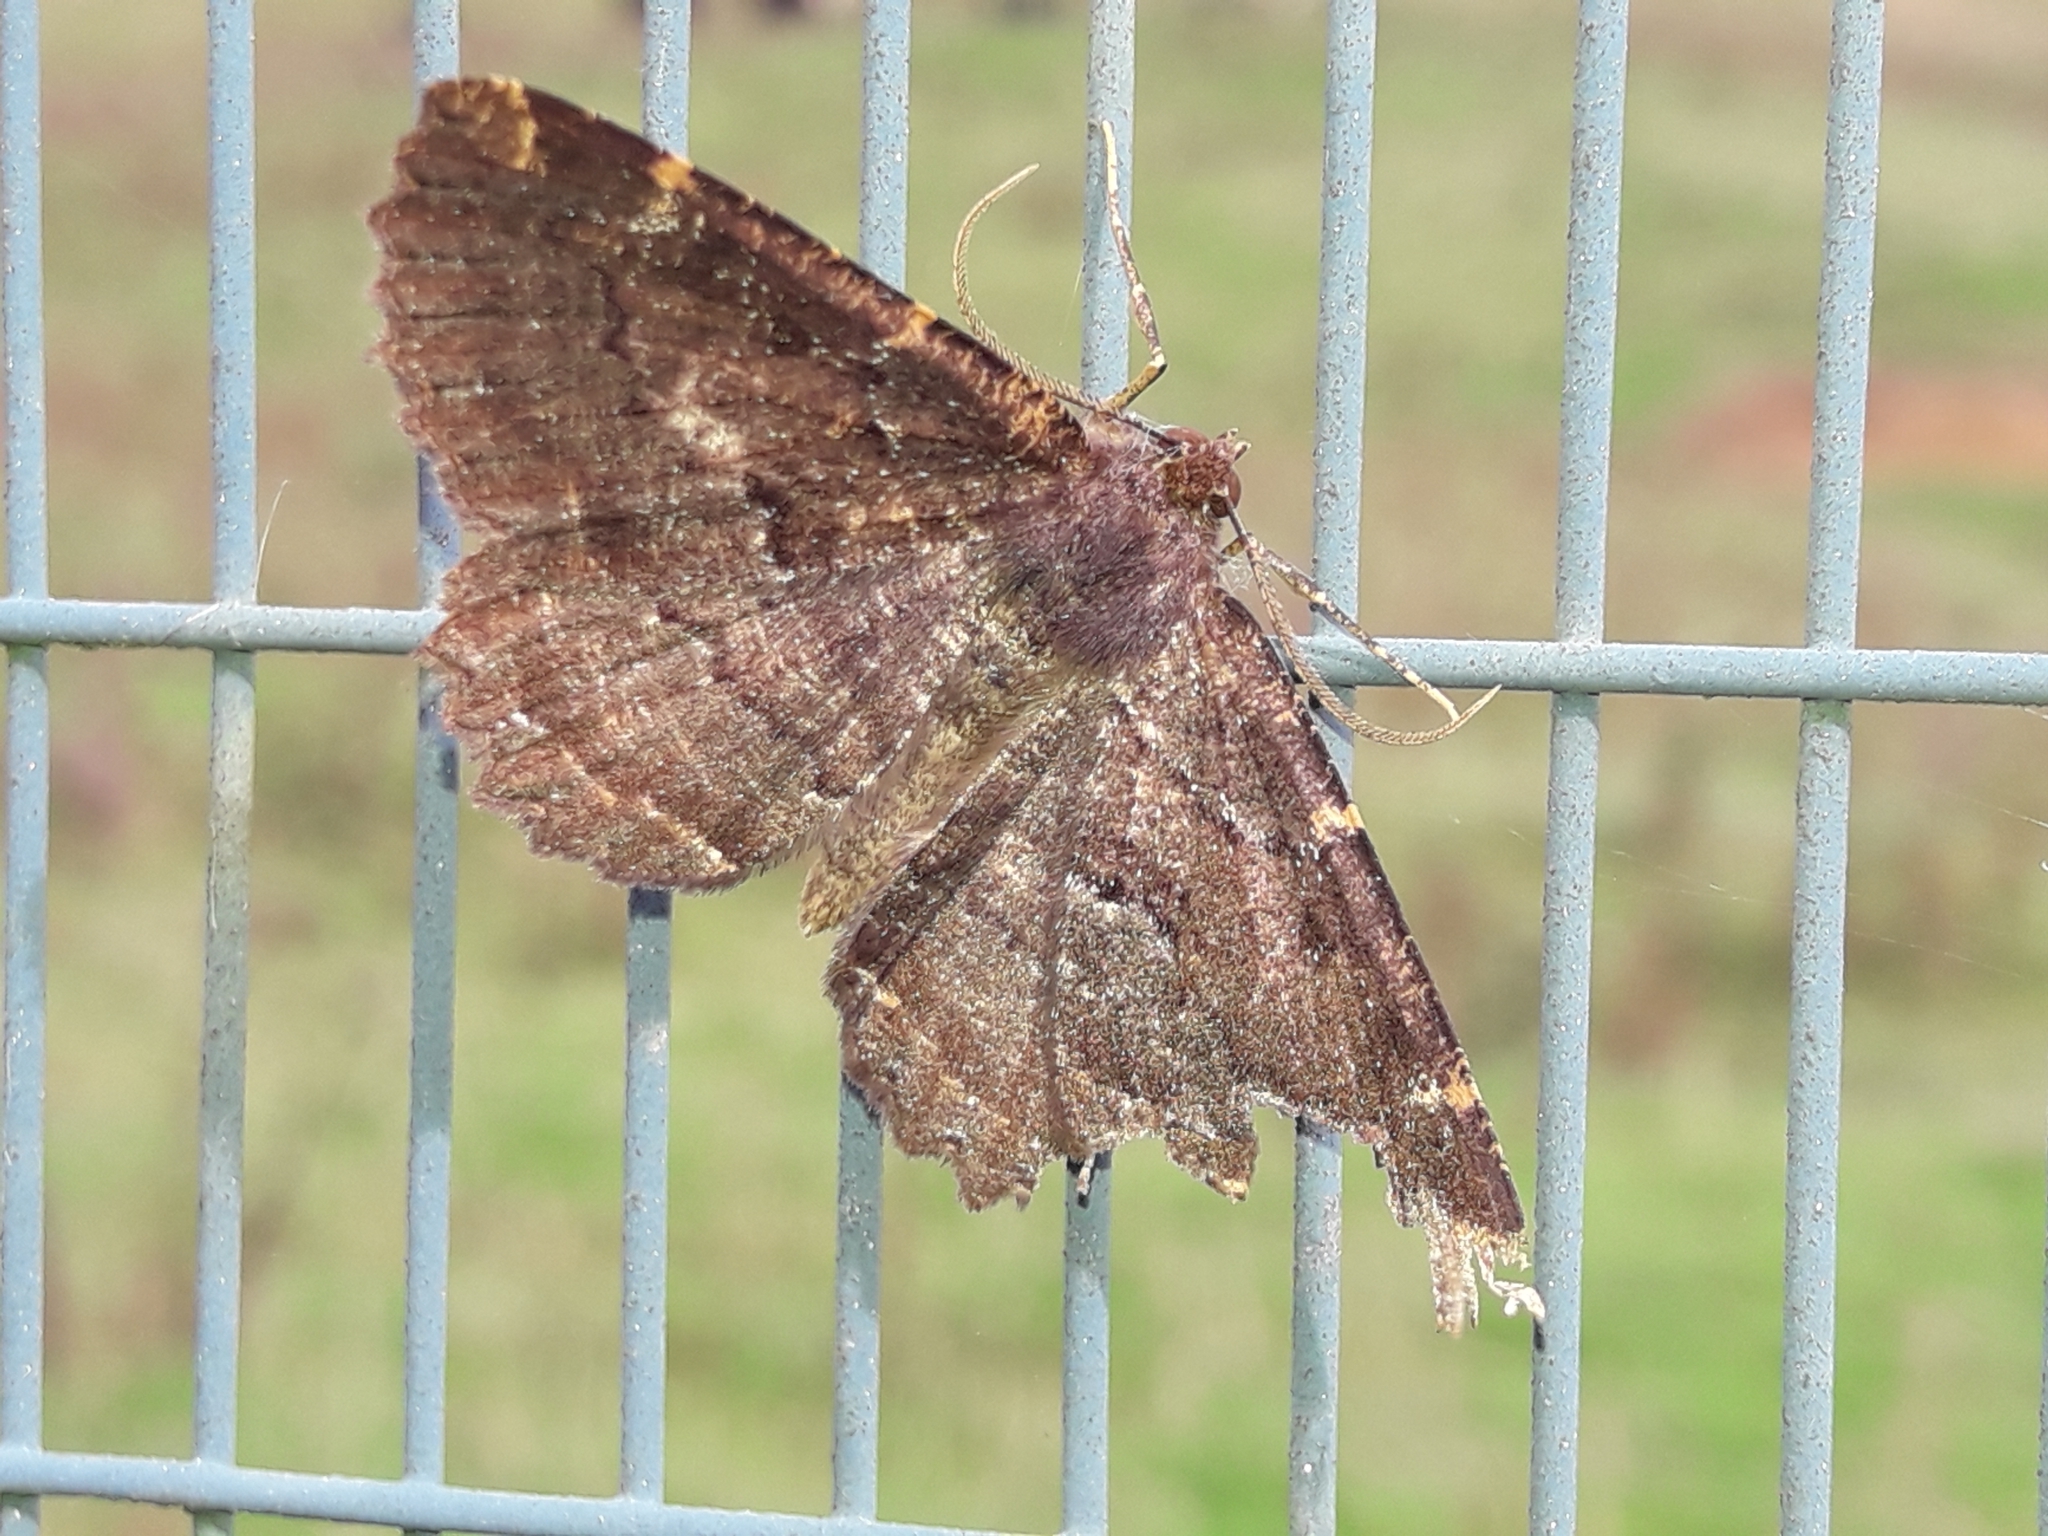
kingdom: Animalia
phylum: Arthropoda
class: Insecta
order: Lepidoptera
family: Geometridae
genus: Gellonia
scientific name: Gellonia dejectaria
